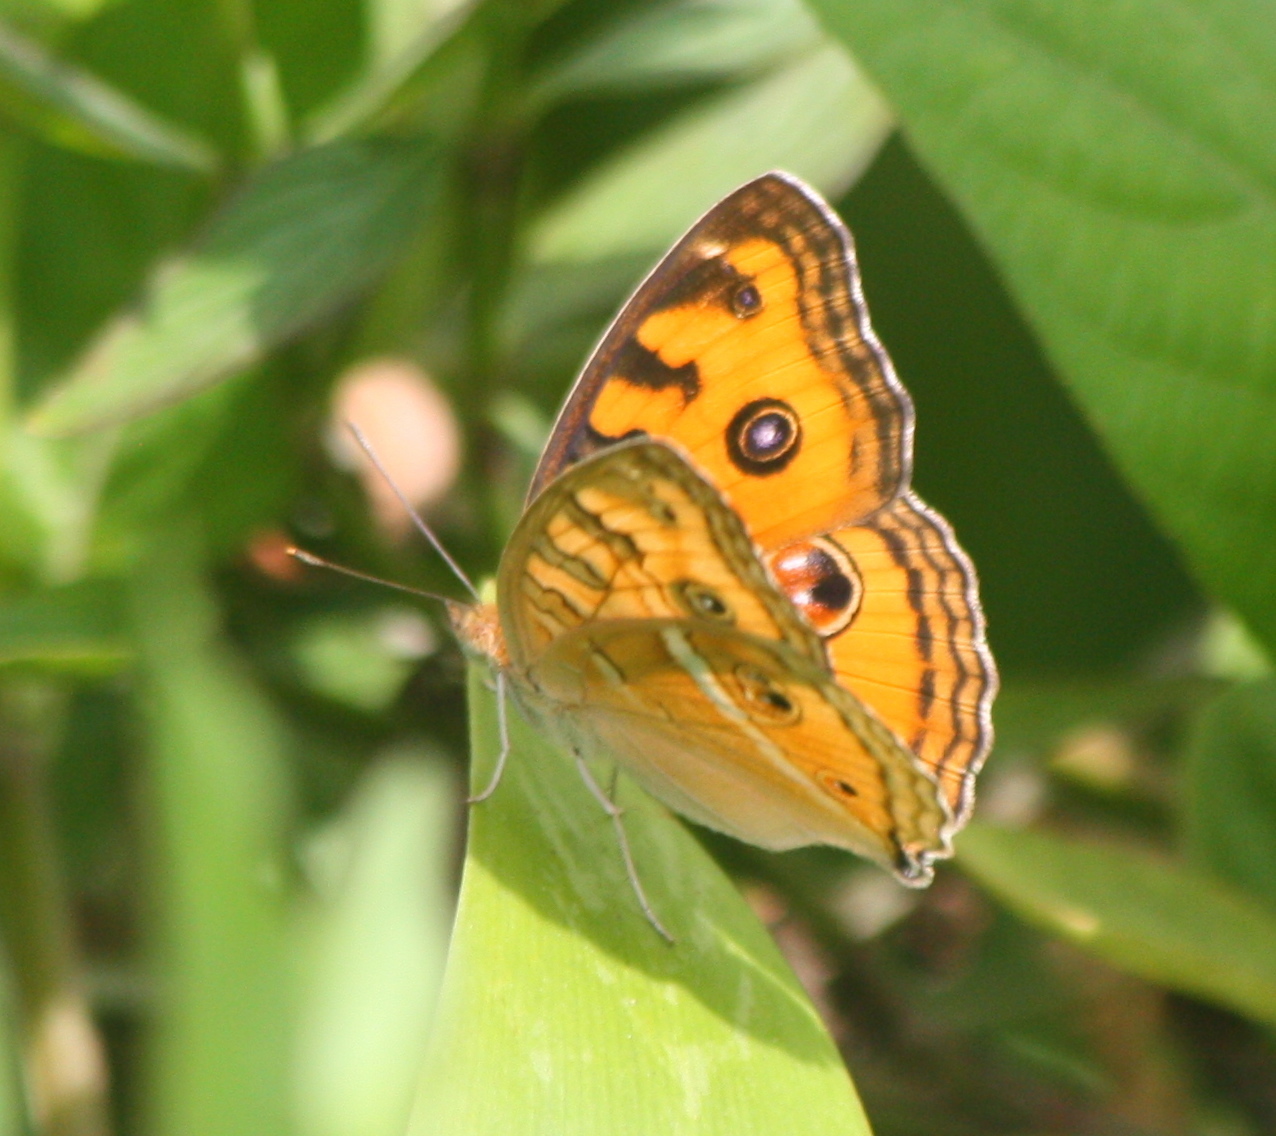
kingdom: Animalia
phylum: Arthropoda
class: Insecta
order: Lepidoptera
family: Nymphalidae
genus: Junonia
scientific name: Junonia almana
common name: Peacock pansy
